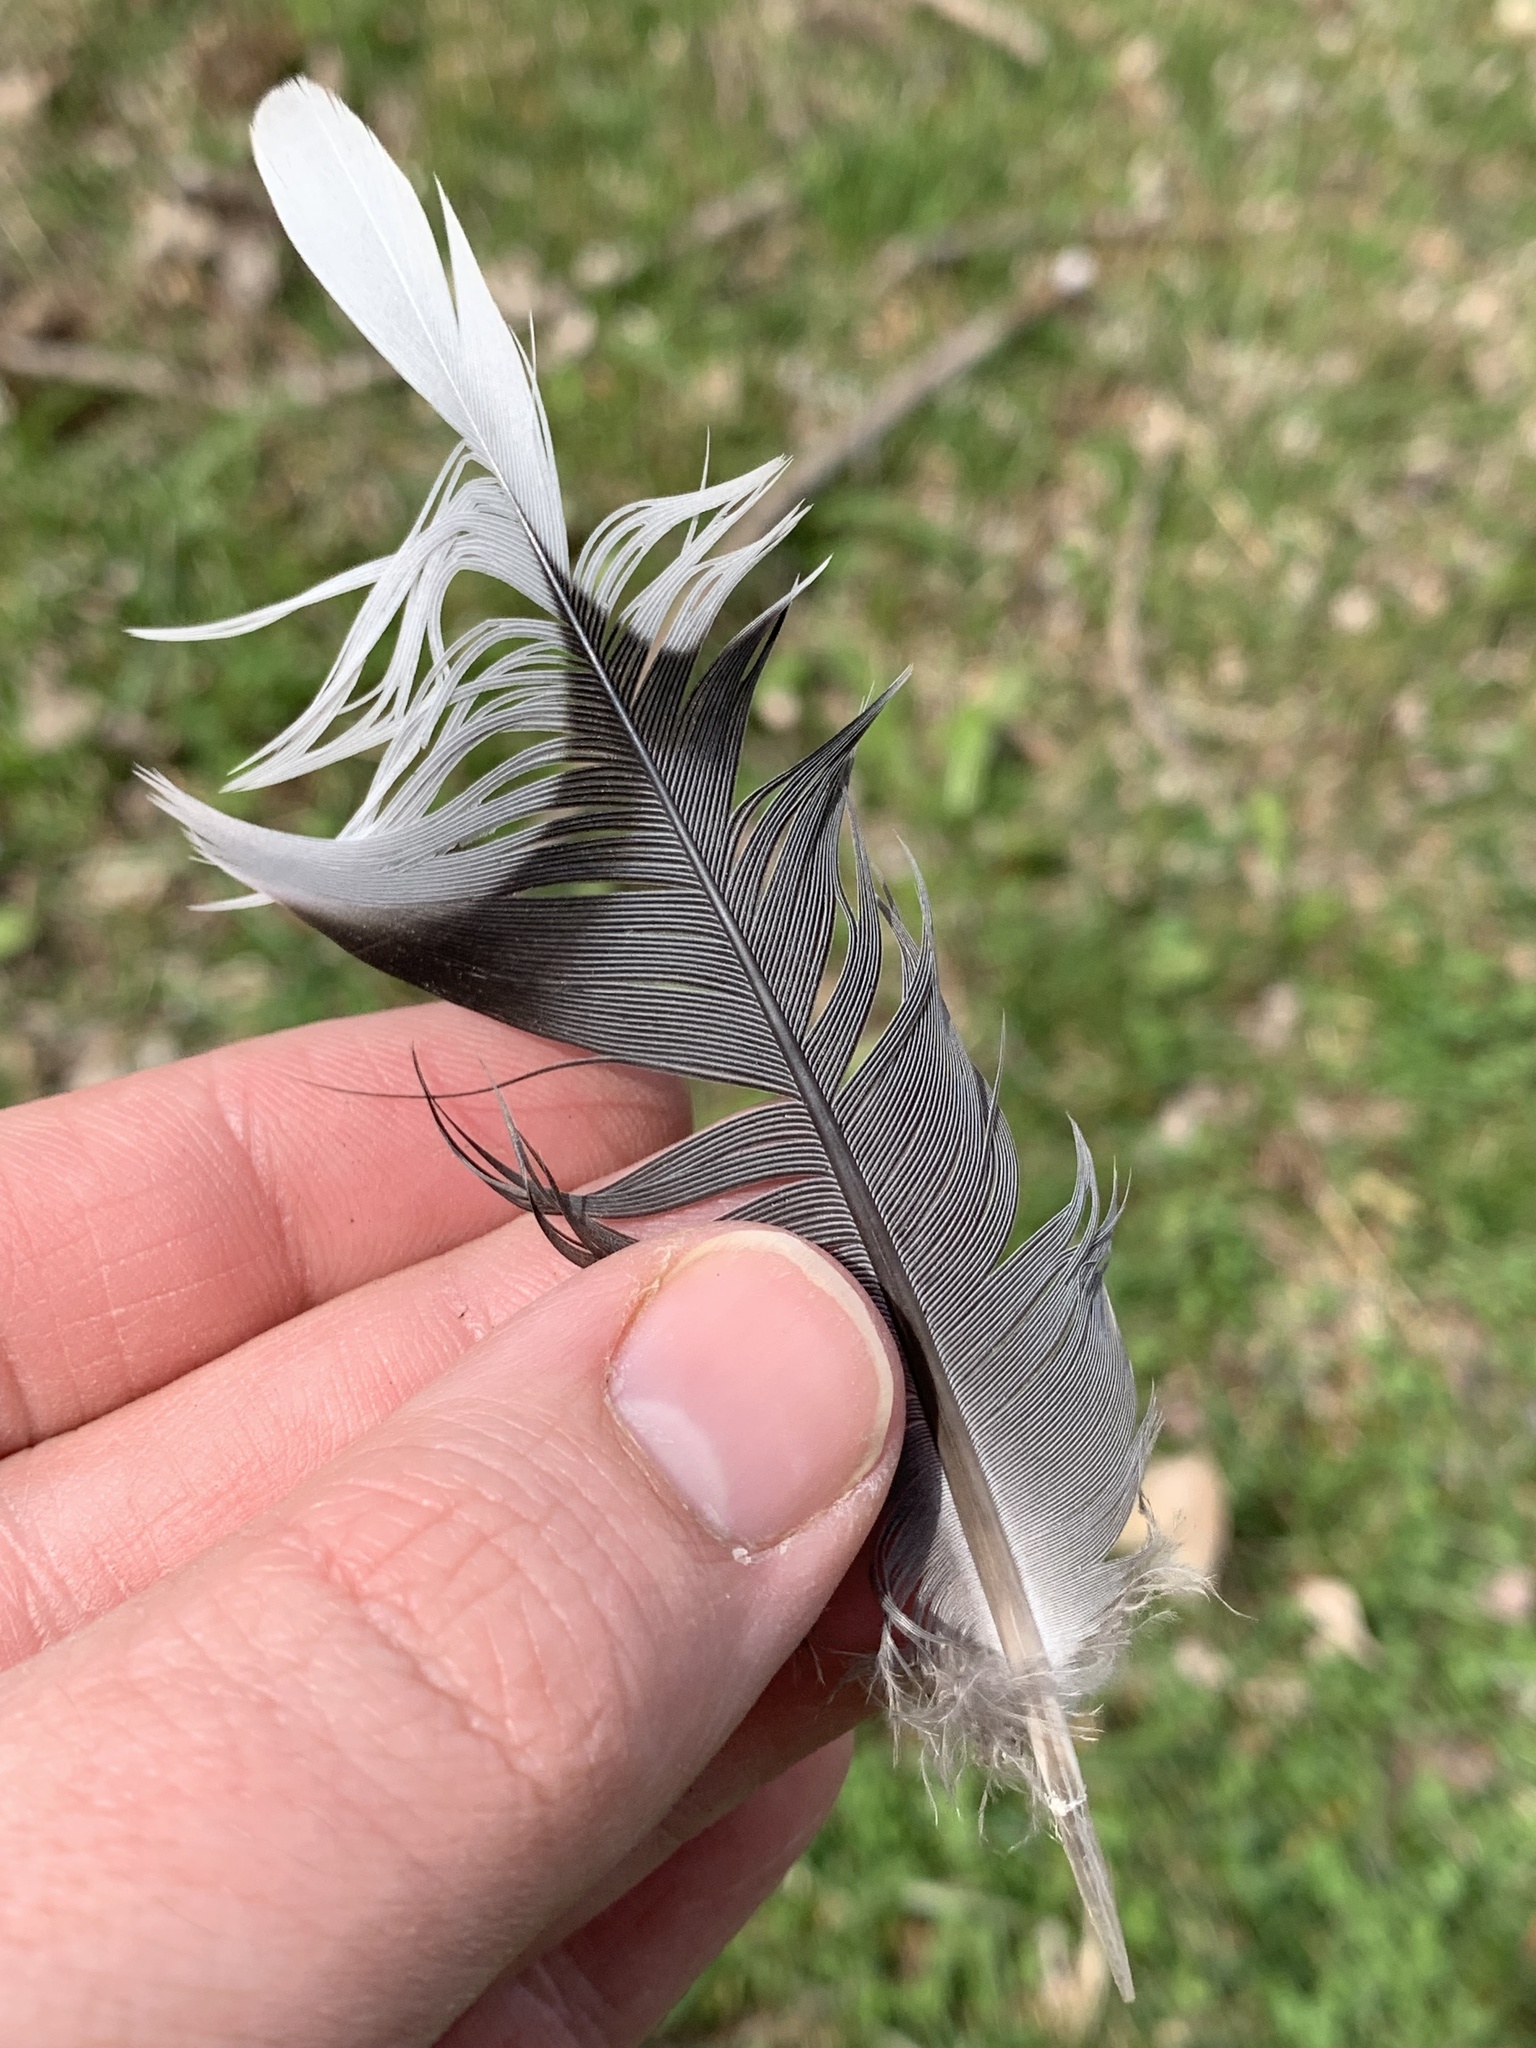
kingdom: Animalia
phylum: Chordata
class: Aves
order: Columbiformes
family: Columbidae
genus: Zenaida
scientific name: Zenaida macroura
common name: Mourning dove
